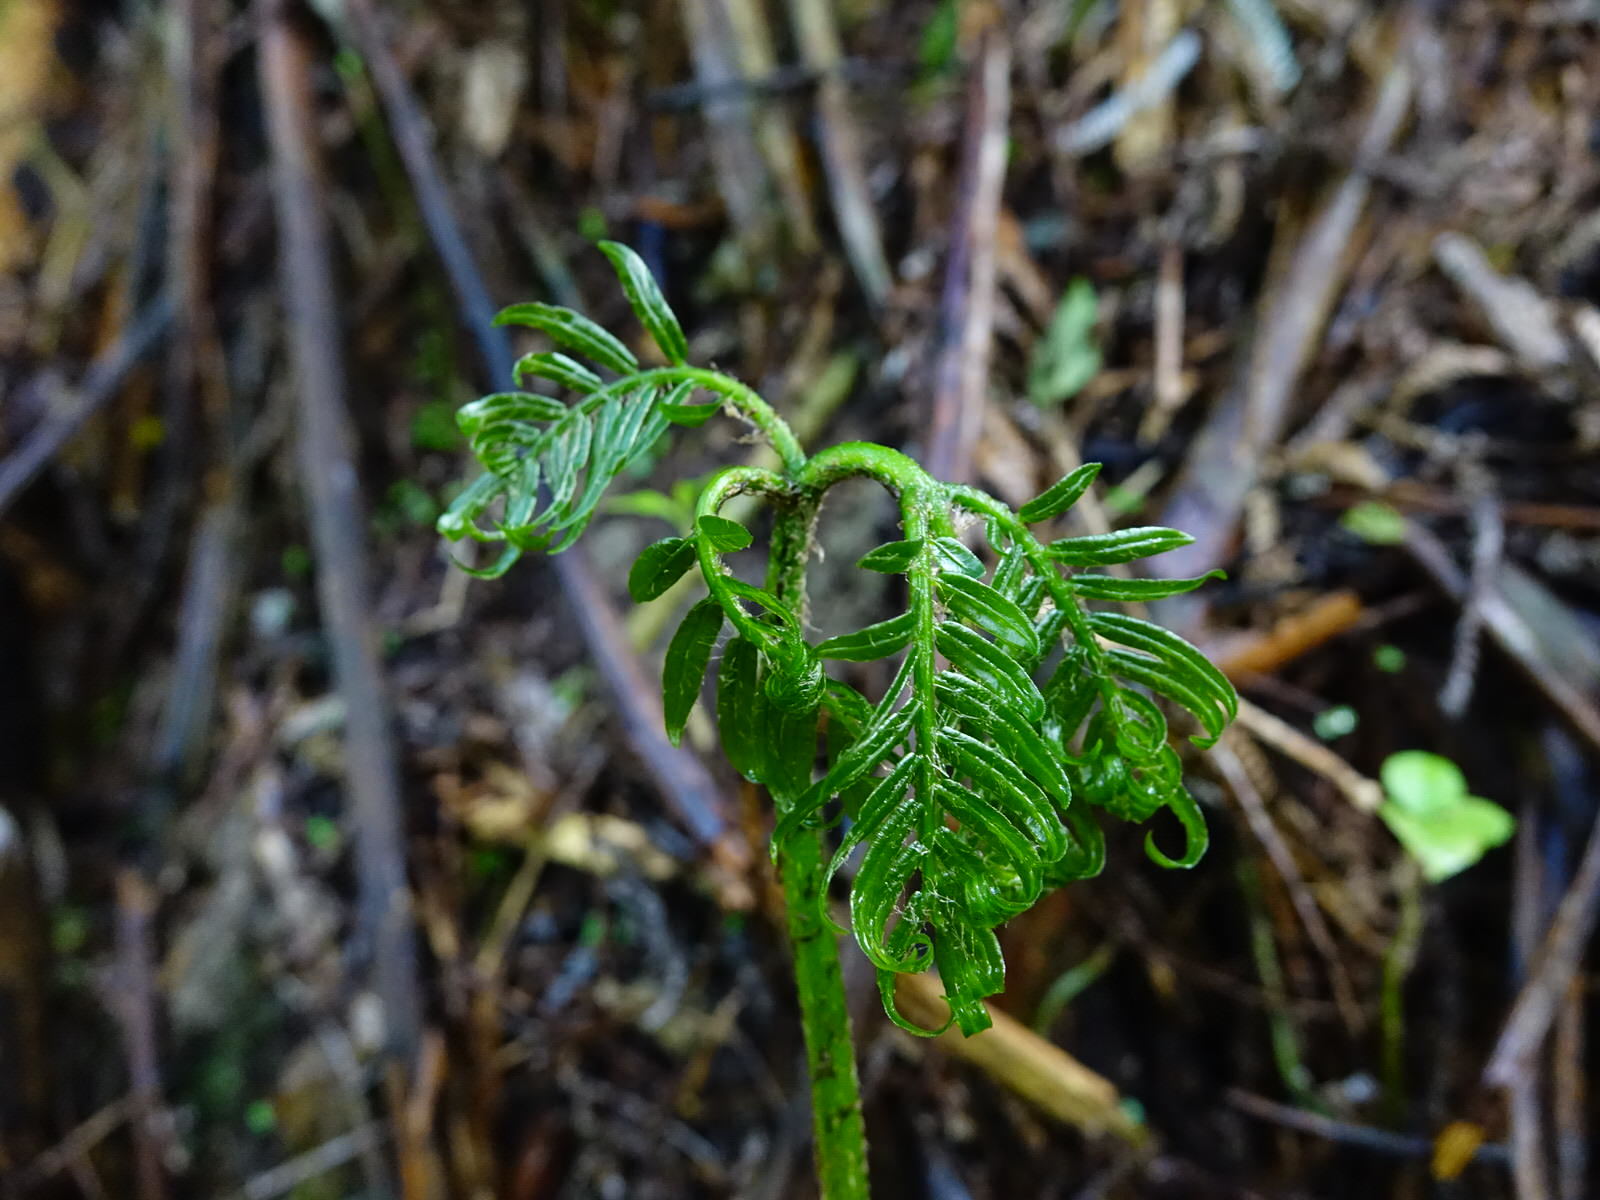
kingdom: Plantae
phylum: Tracheophyta
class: Polypodiopsida
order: Marattiales
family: Marattiaceae
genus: Ptisana
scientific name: Ptisana salicina
